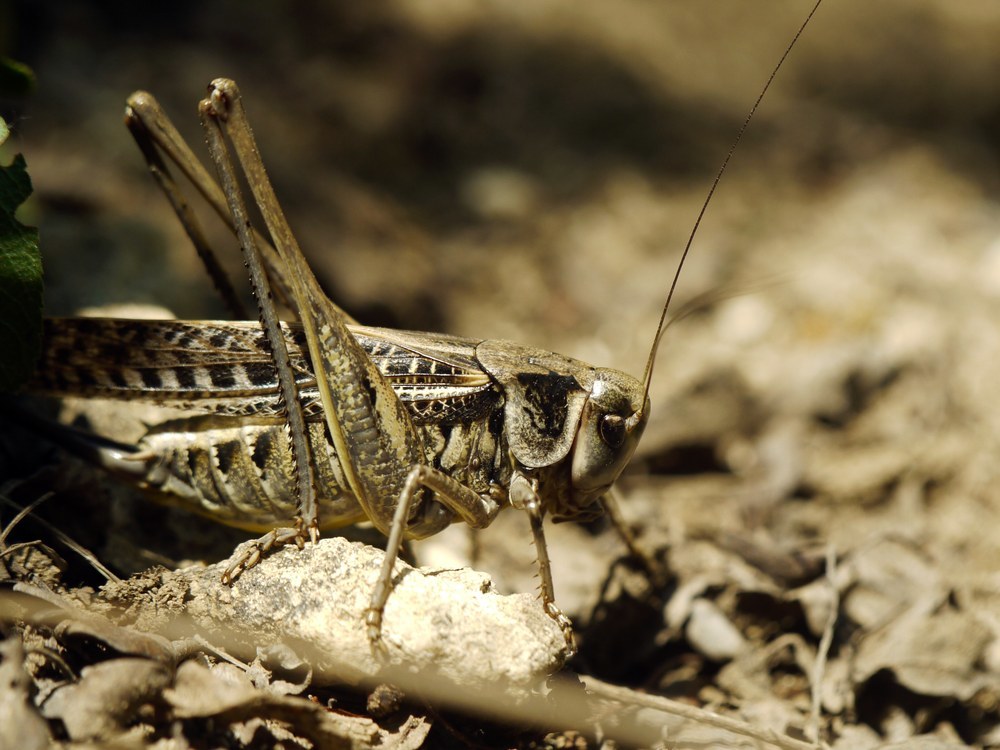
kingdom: Animalia
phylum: Arthropoda
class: Insecta
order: Orthoptera
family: Tettigoniidae
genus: Decticus
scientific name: Decticus verrucivorus
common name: Wart-biter
